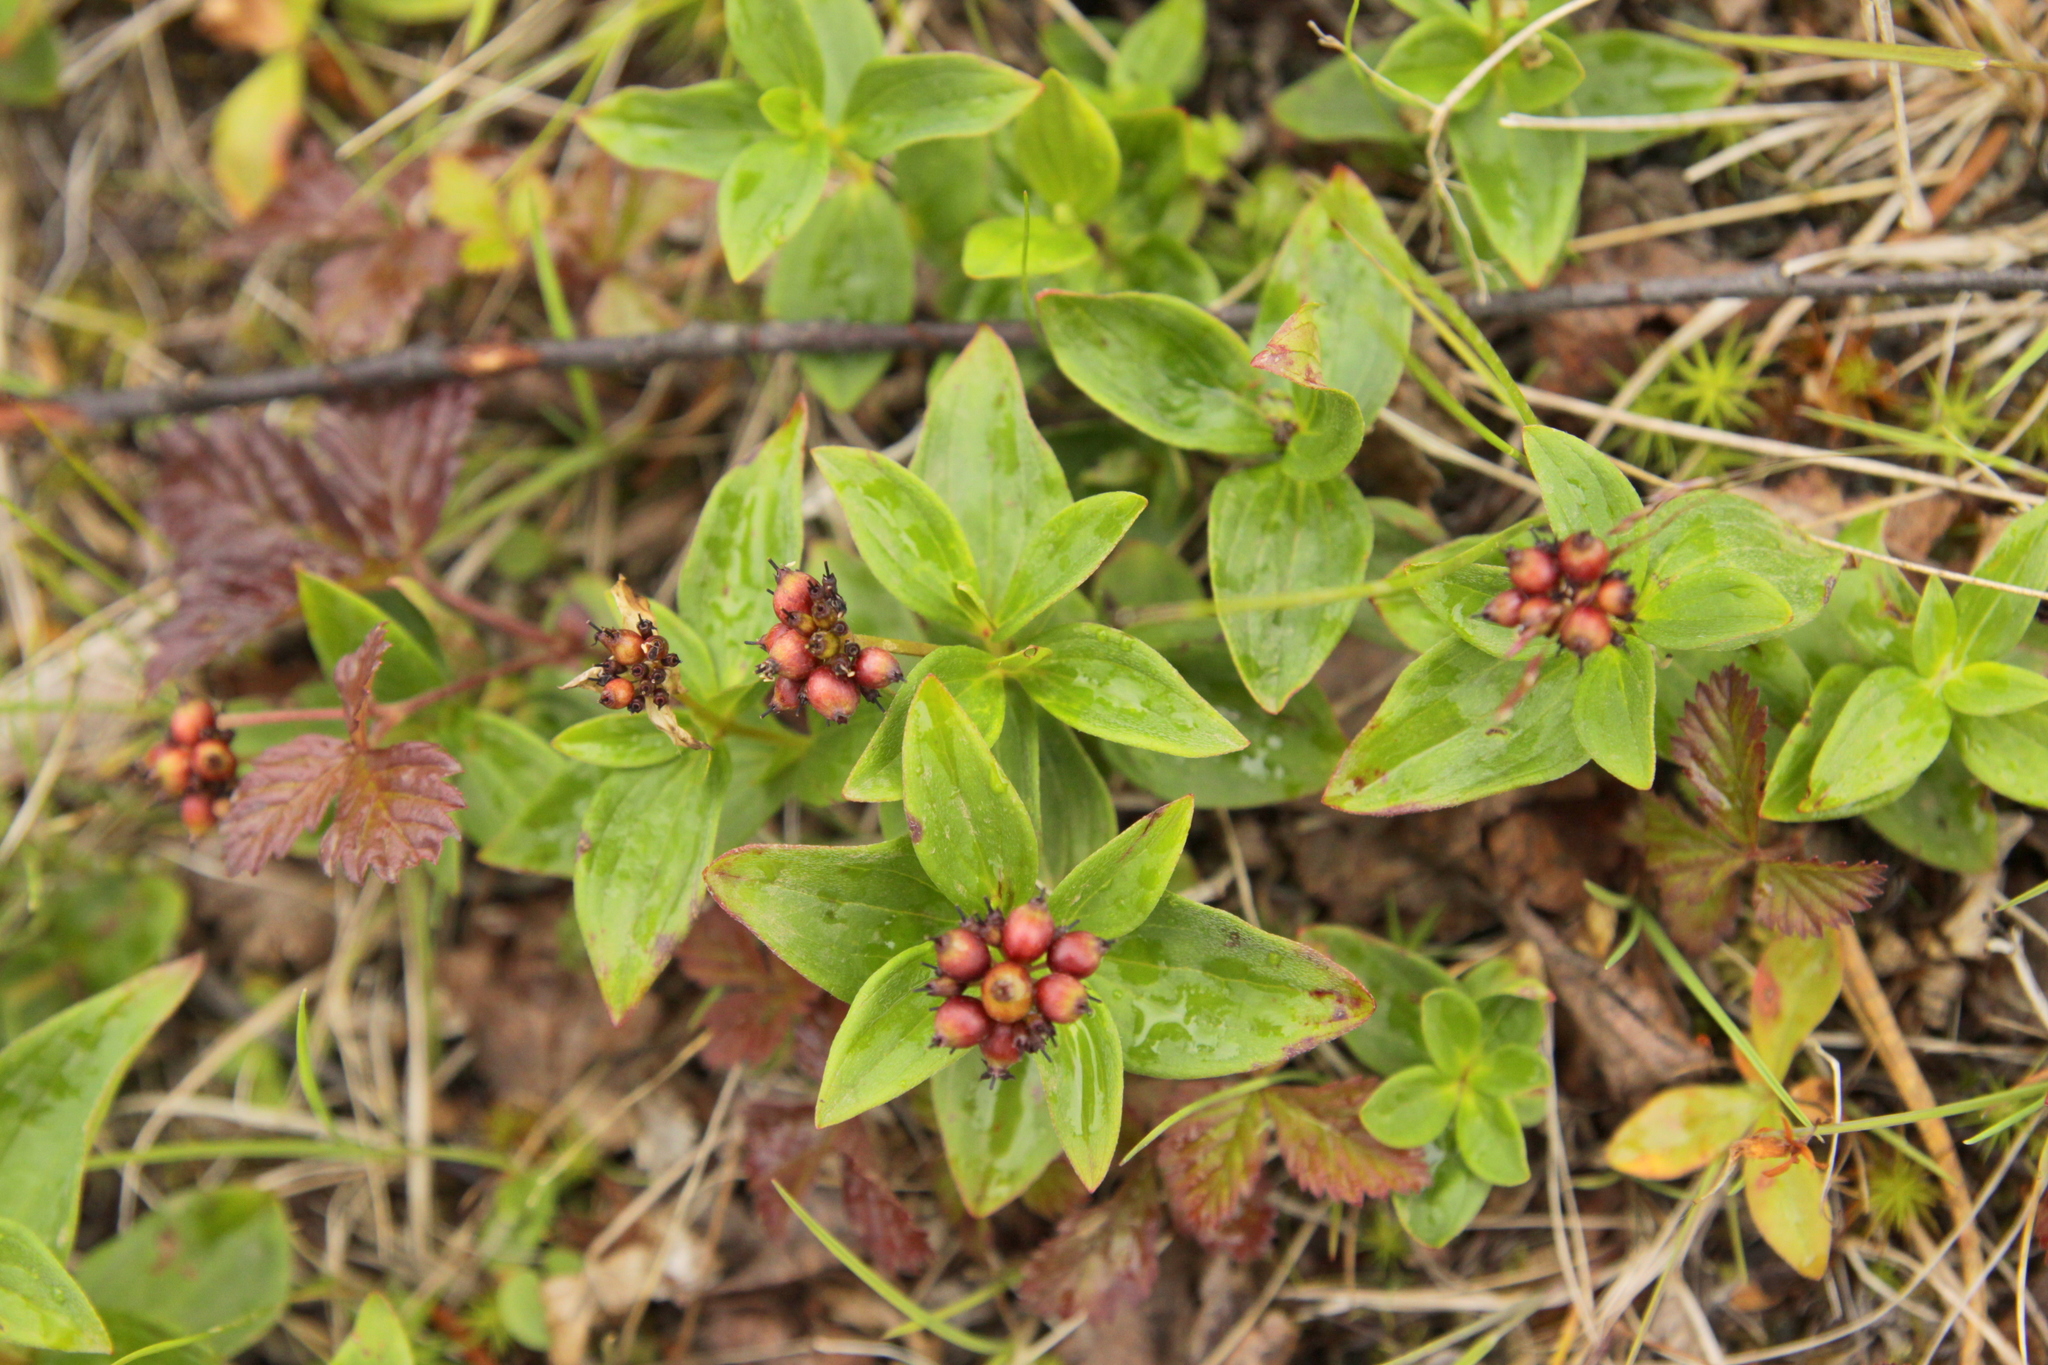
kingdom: Plantae
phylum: Tracheophyta
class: Magnoliopsida
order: Cornales
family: Cornaceae
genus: Cornus
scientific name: Cornus suecica
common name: Dwarf cornel
